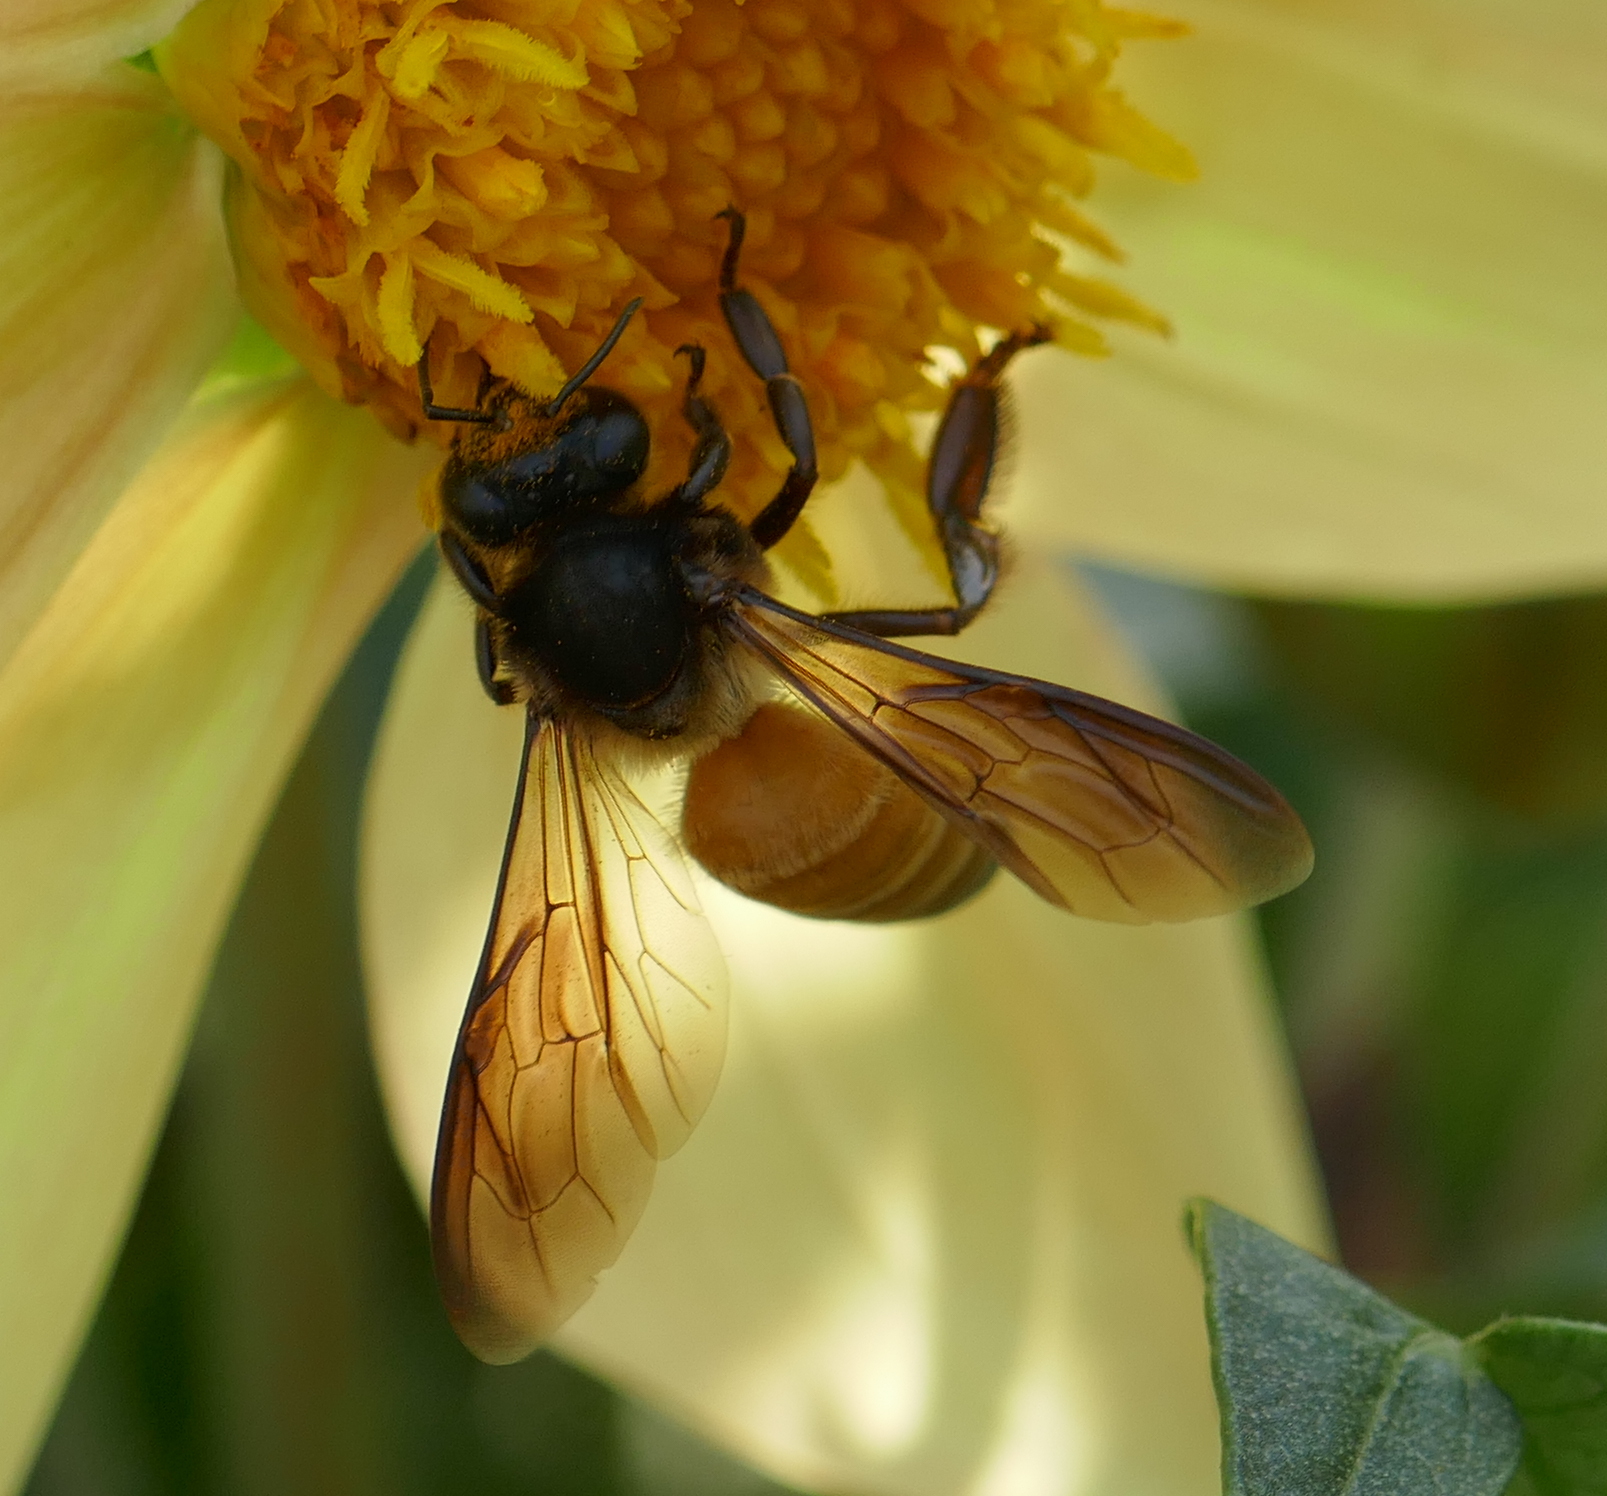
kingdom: Animalia
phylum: Arthropoda
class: Insecta
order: Hymenoptera
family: Apidae
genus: Apis
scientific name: Apis dorsata
